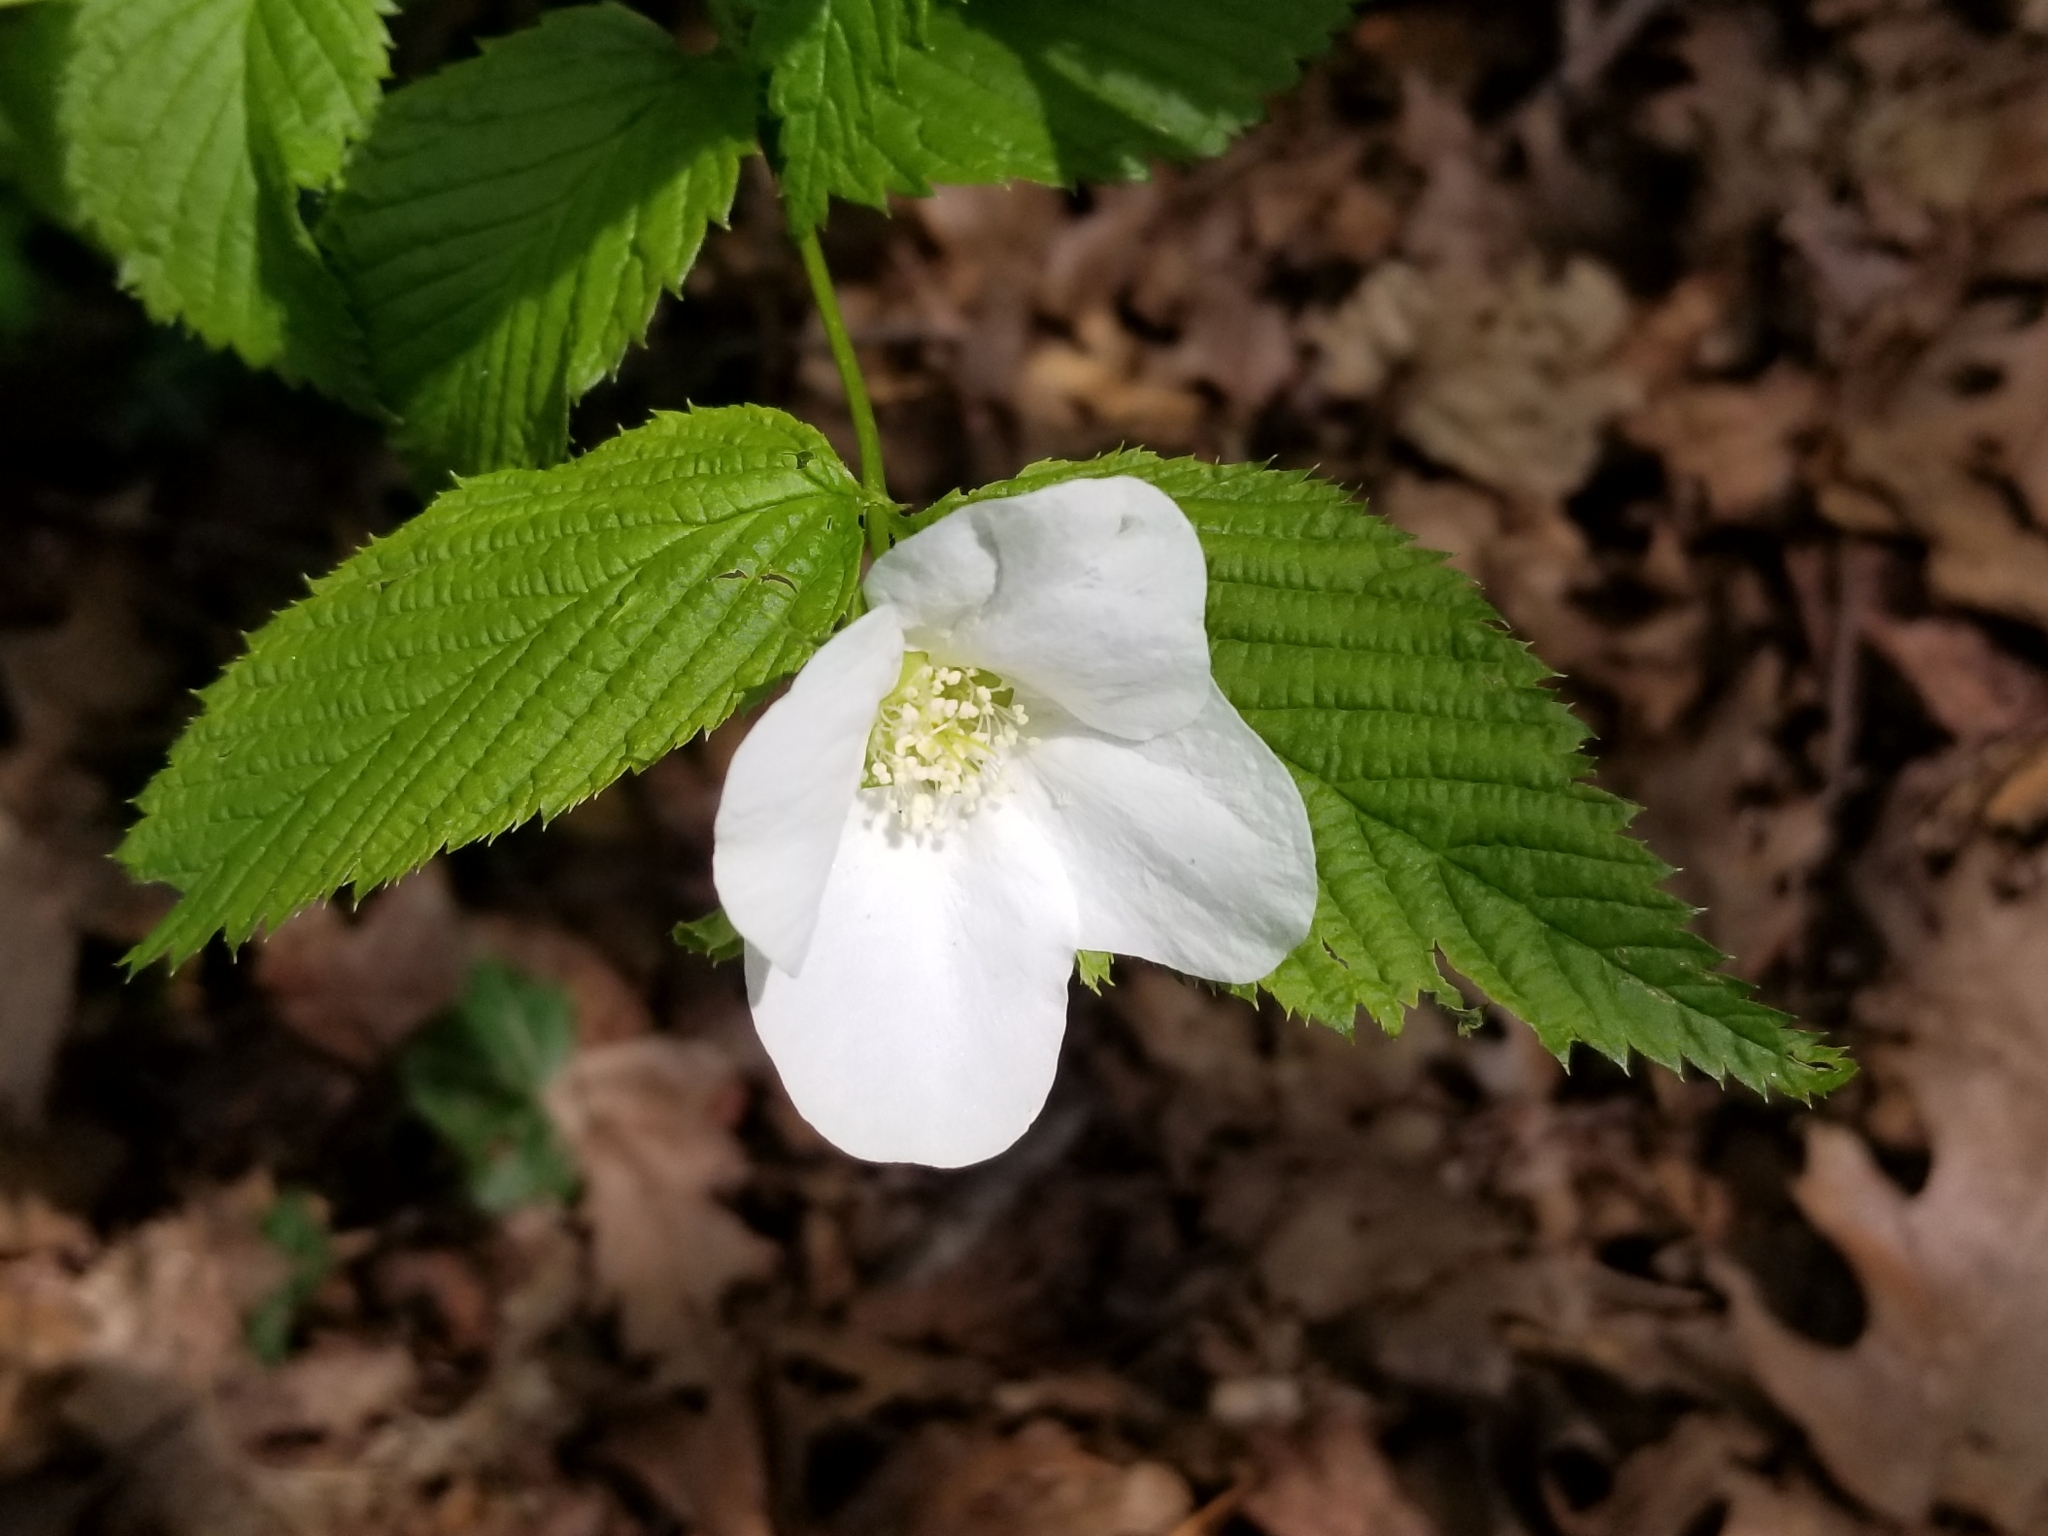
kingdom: Plantae
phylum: Tracheophyta
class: Magnoliopsida
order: Rosales
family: Rosaceae
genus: Rhodotypos
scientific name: Rhodotypos scandens
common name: Jetbead
